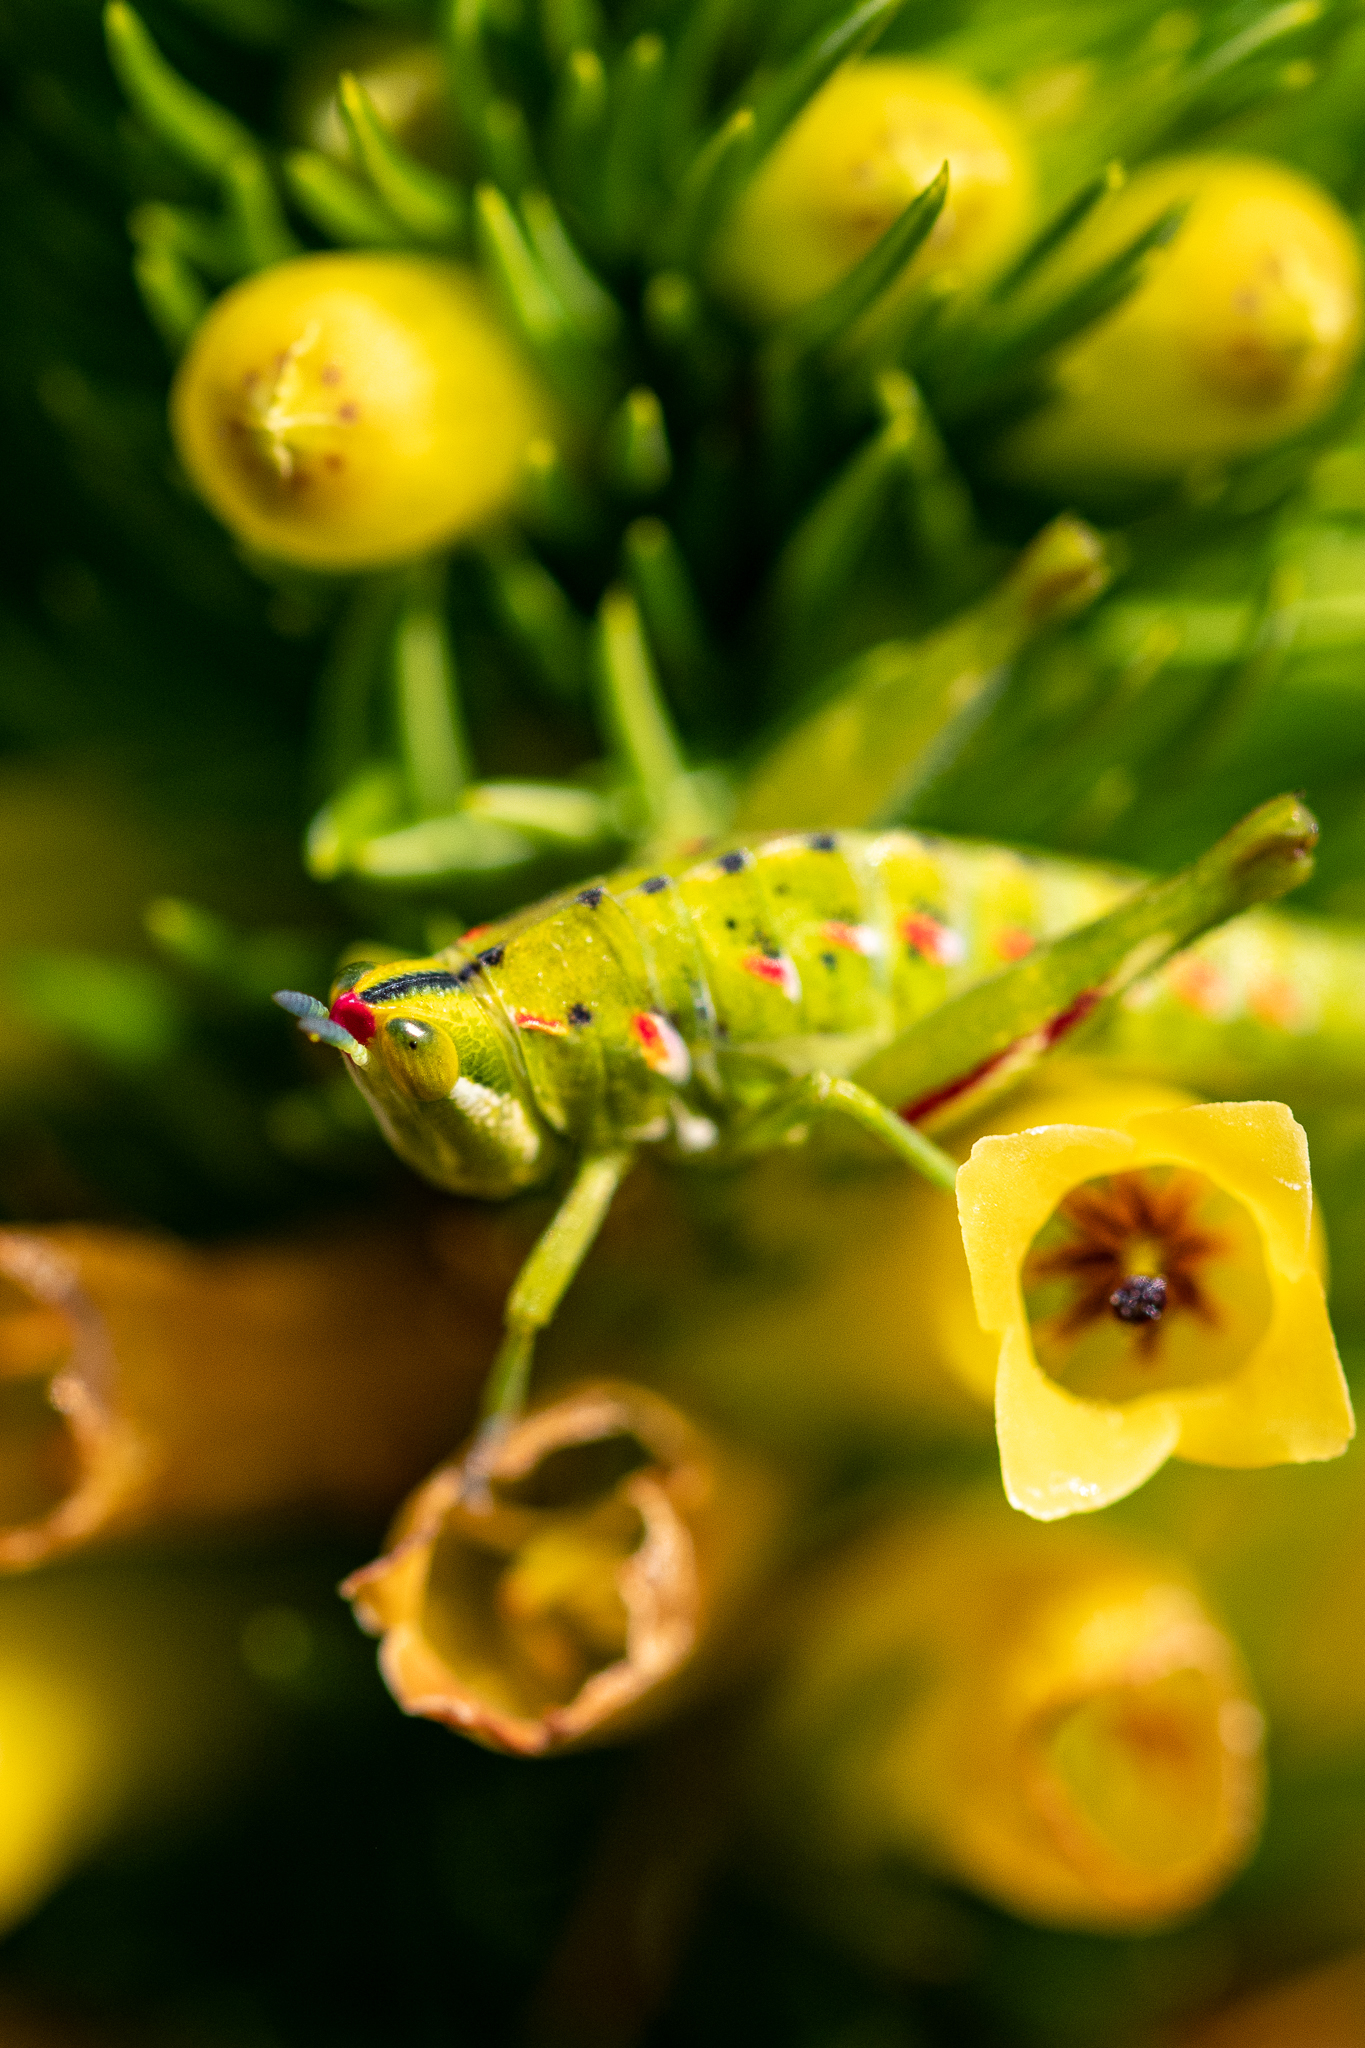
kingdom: Animalia
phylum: Arthropoda
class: Insecta
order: Orthoptera
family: Thericleidae
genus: Thericlesiella
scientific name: Thericlesiella meridionalis
